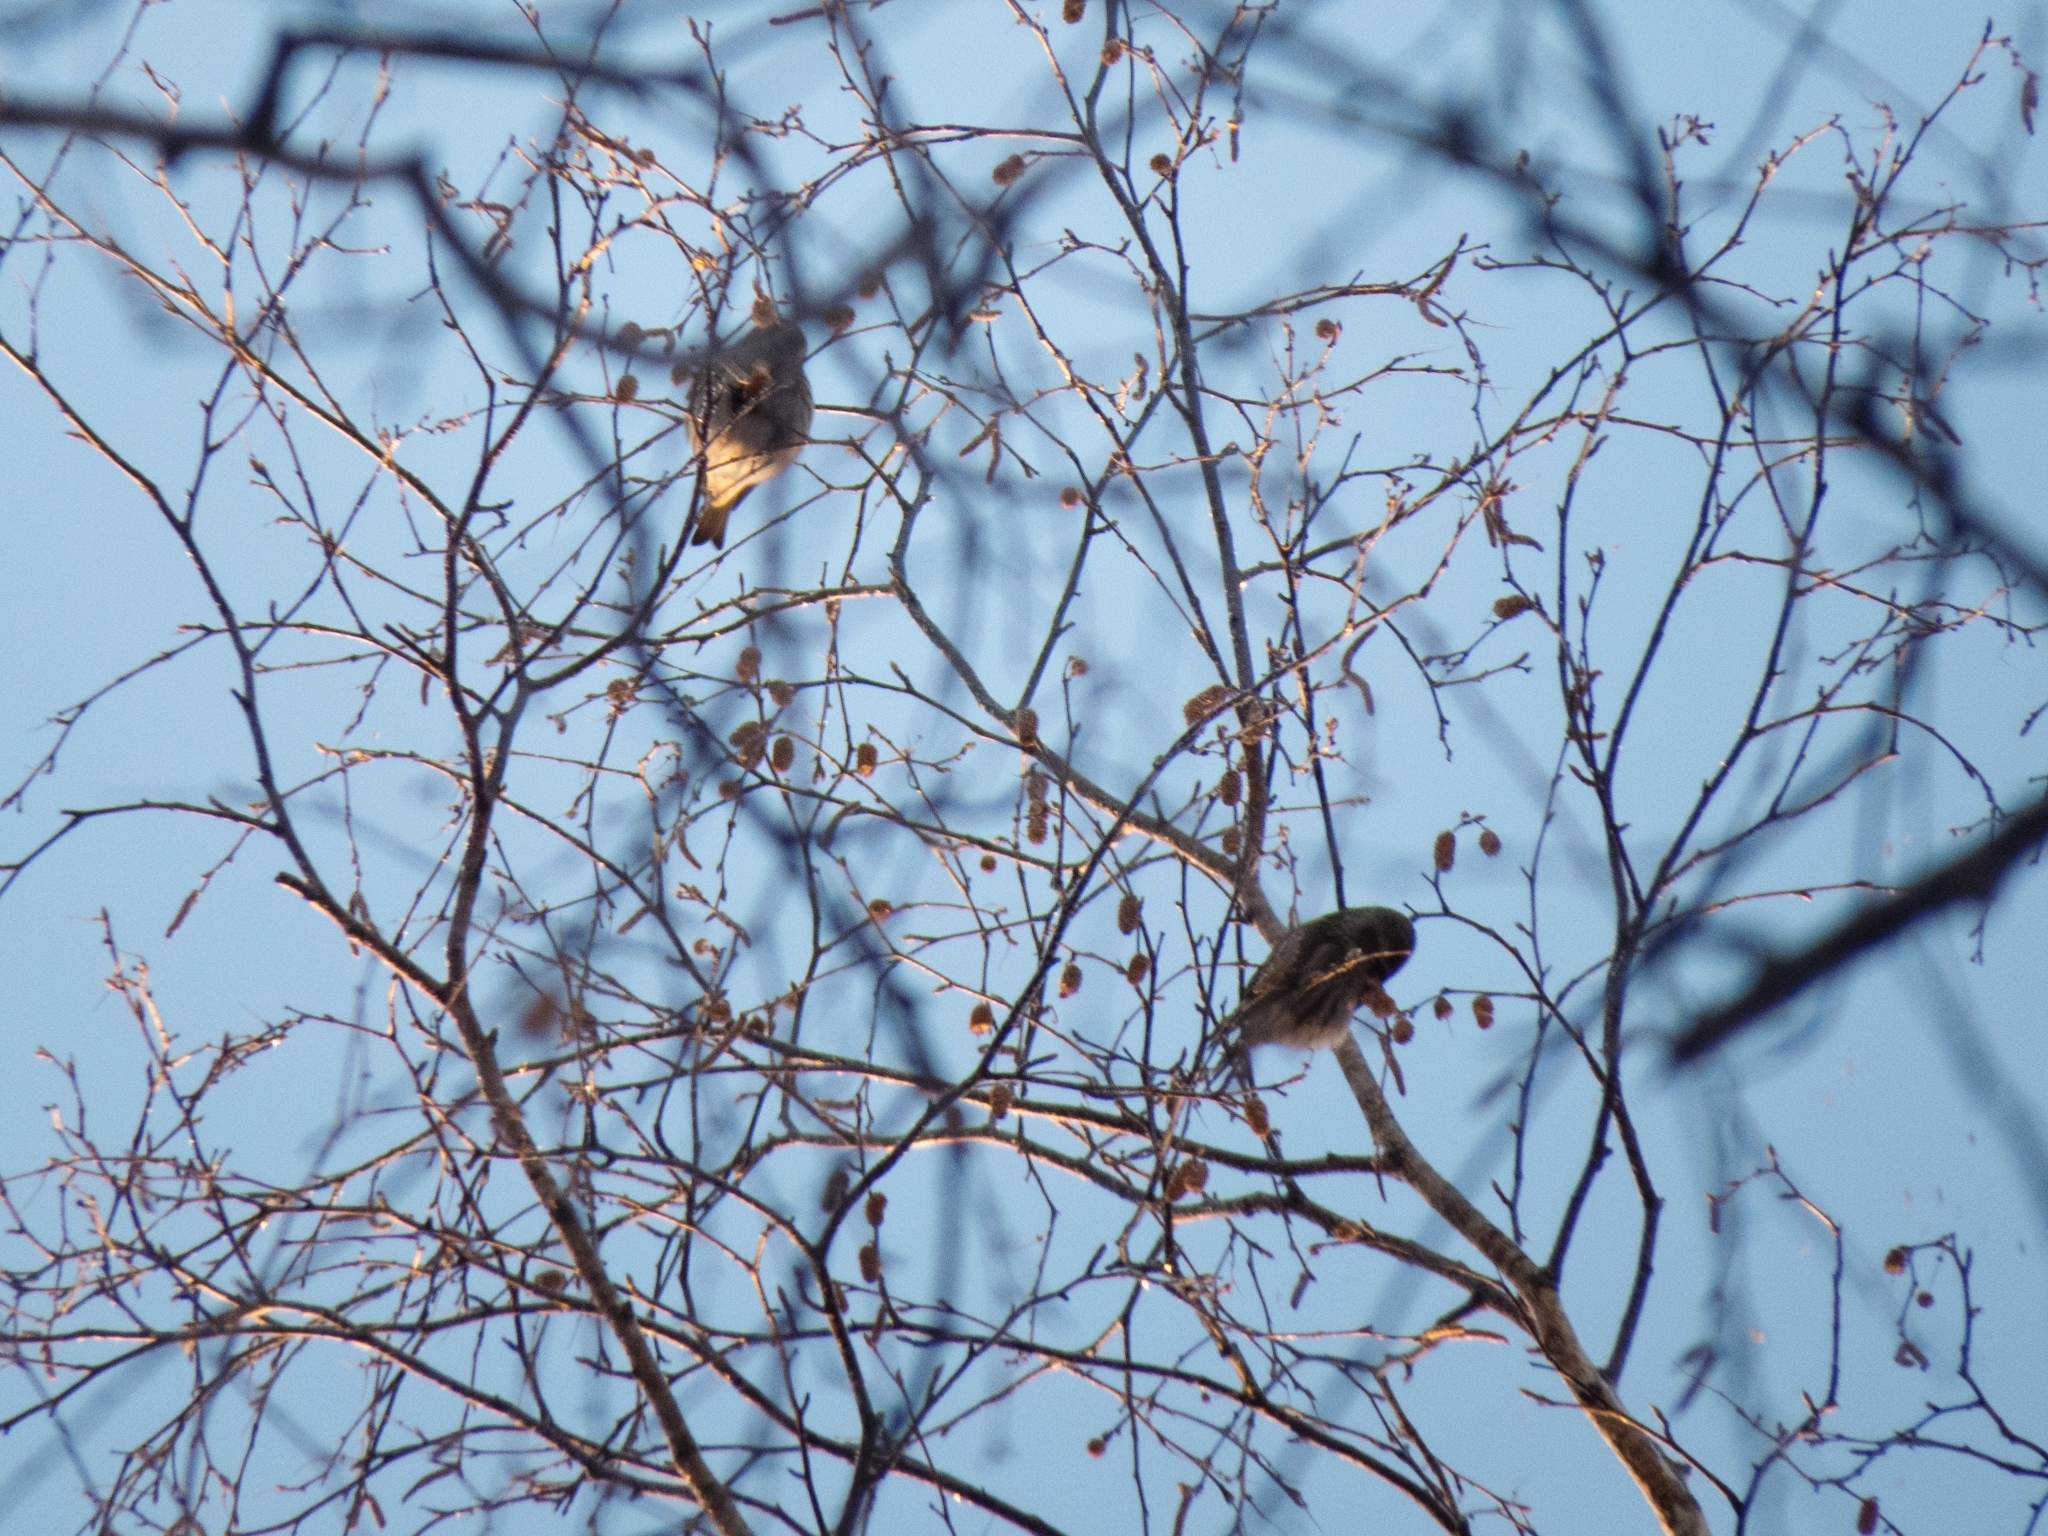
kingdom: Animalia
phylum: Chordata
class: Aves
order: Passeriformes
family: Fringillidae
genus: Acanthis
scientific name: Acanthis flammea
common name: Common redpoll
